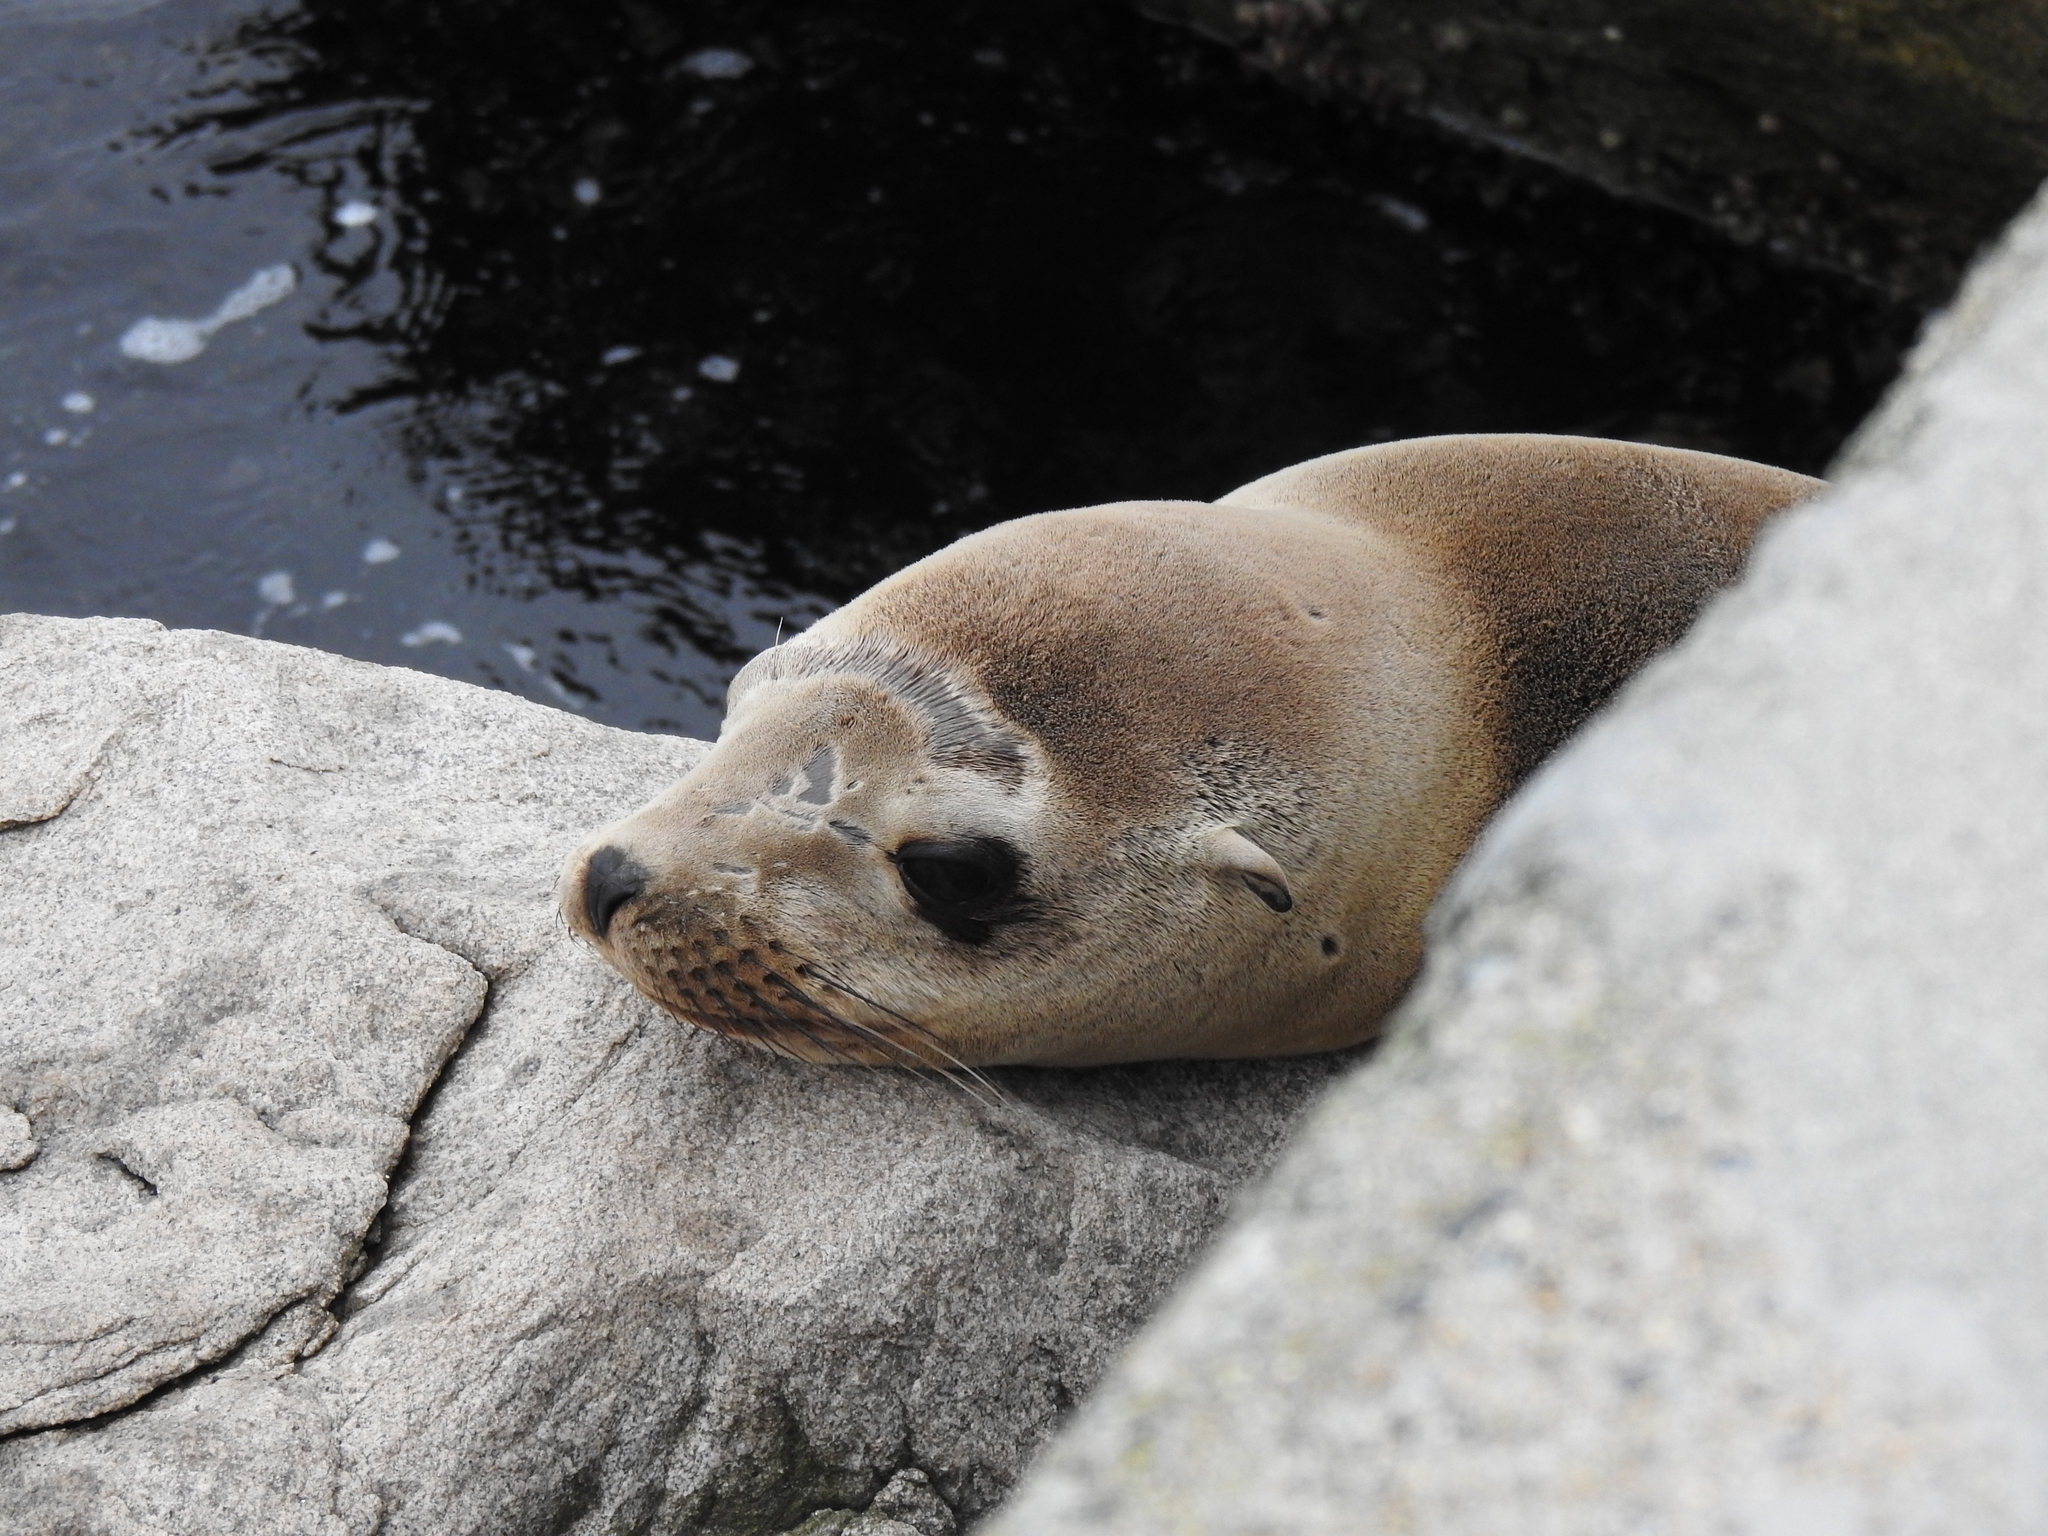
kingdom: Animalia
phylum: Chordata
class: Mammalia
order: Carnivora
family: Otariidae
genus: Zalophus
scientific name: Zalophus californianus
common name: California sea lion
